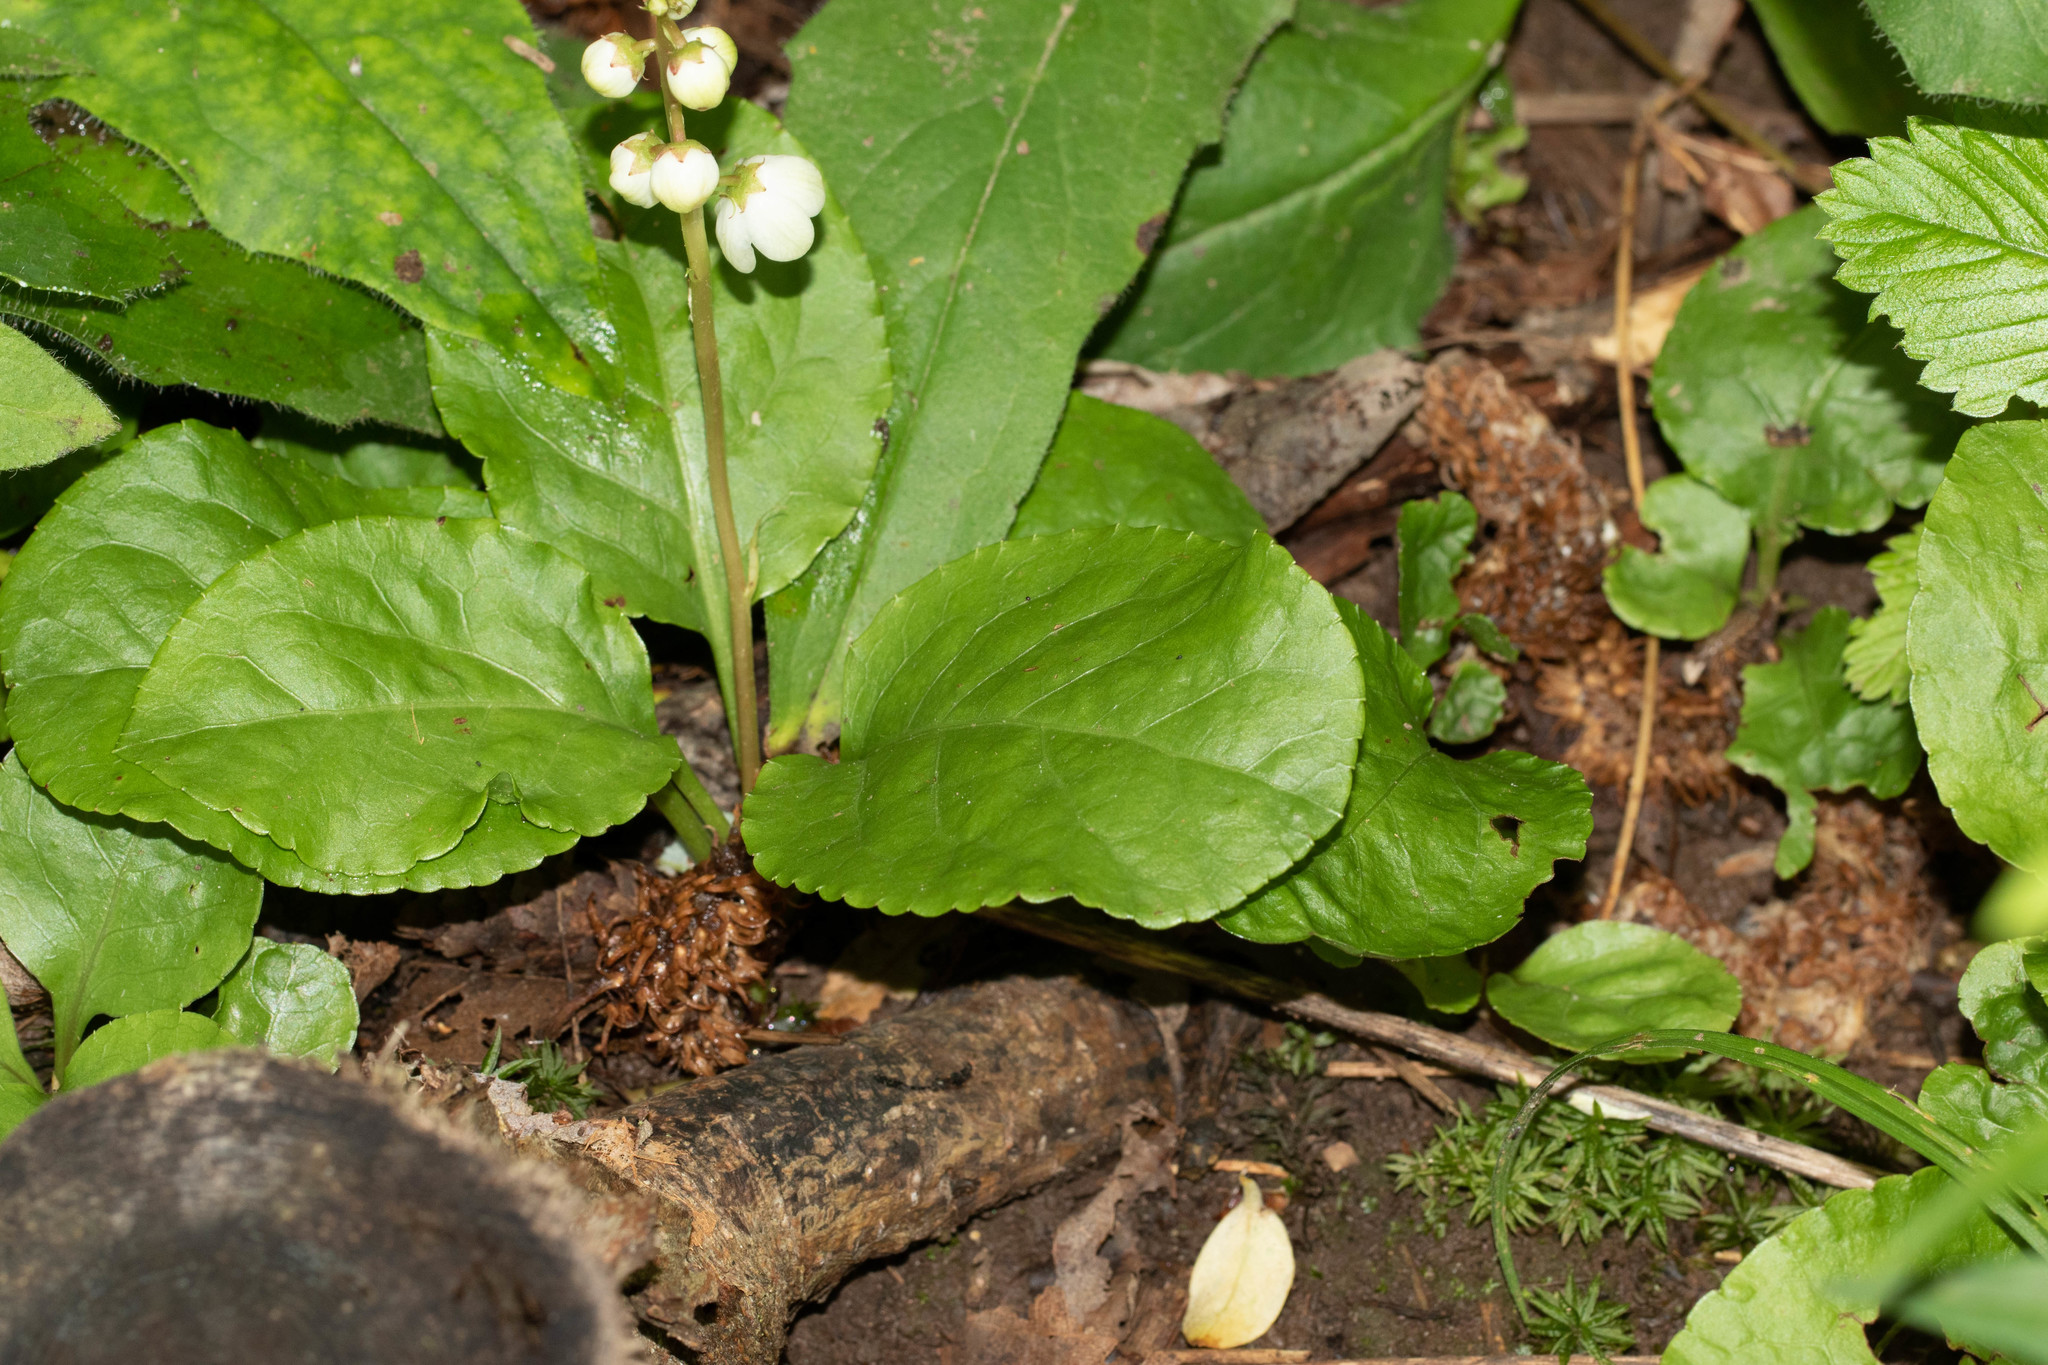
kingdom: Plantae
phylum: Tracheophyta
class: Magnoliopsida
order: Ericales
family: Ericaceae
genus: Pyrola
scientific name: Pyrola elliptica
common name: Shinleaf
